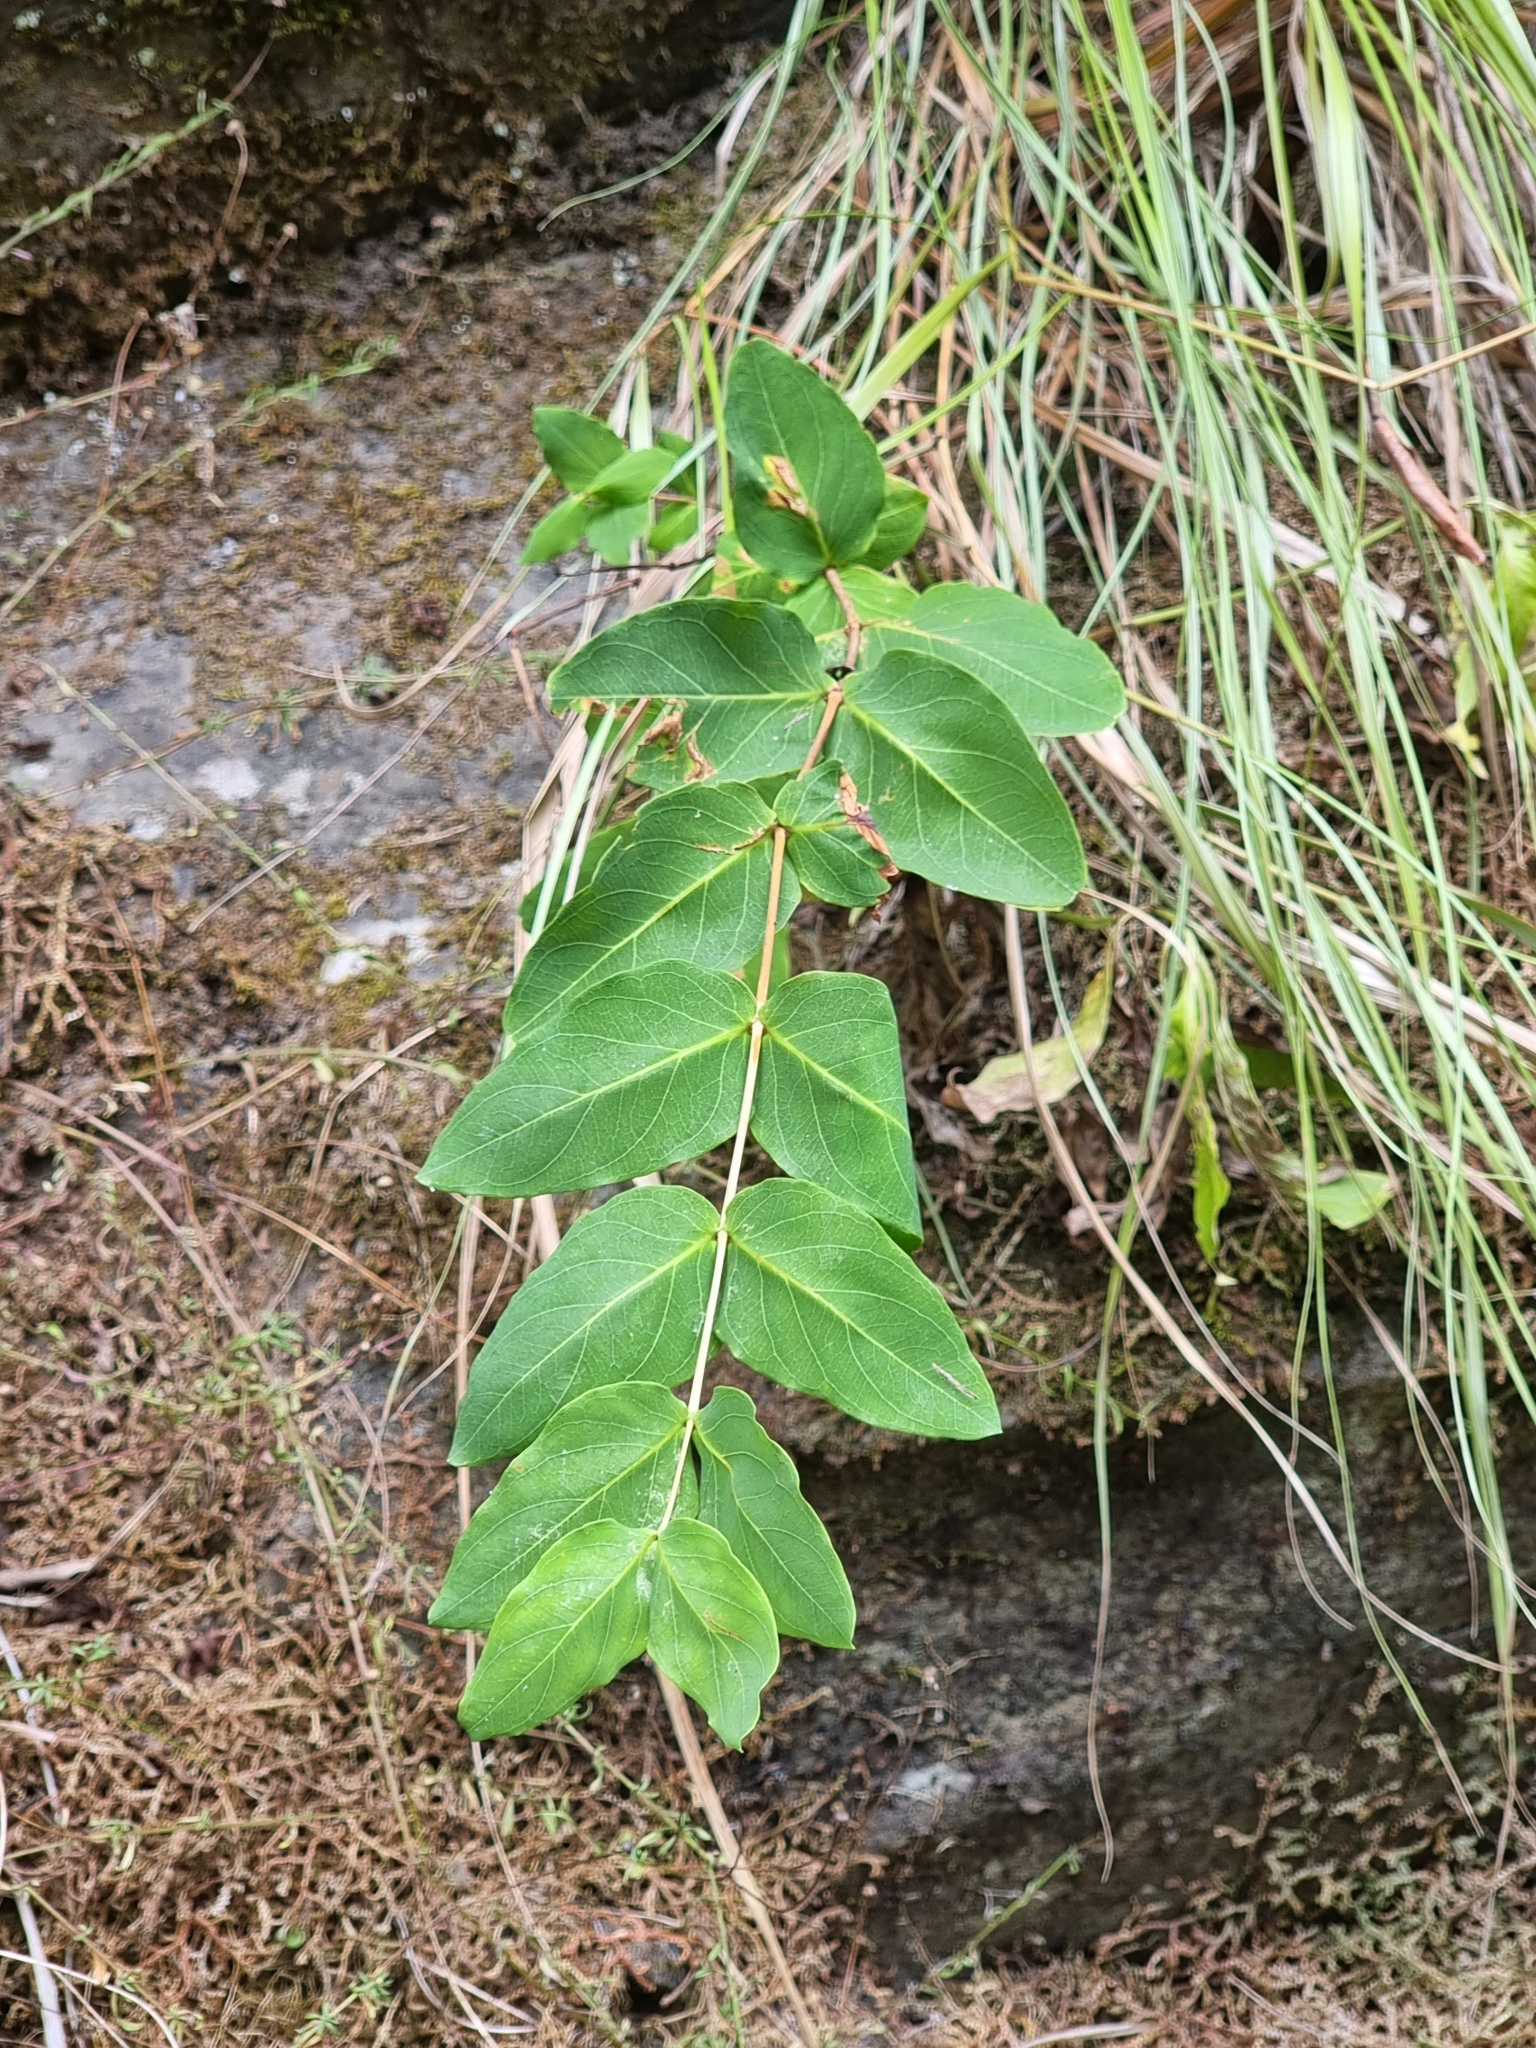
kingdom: Plantae
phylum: Tracheophyta
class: Magnoliopsida
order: Malpighiales
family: Hypericaceae
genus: Hypericum
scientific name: Hypericum grandifolium
